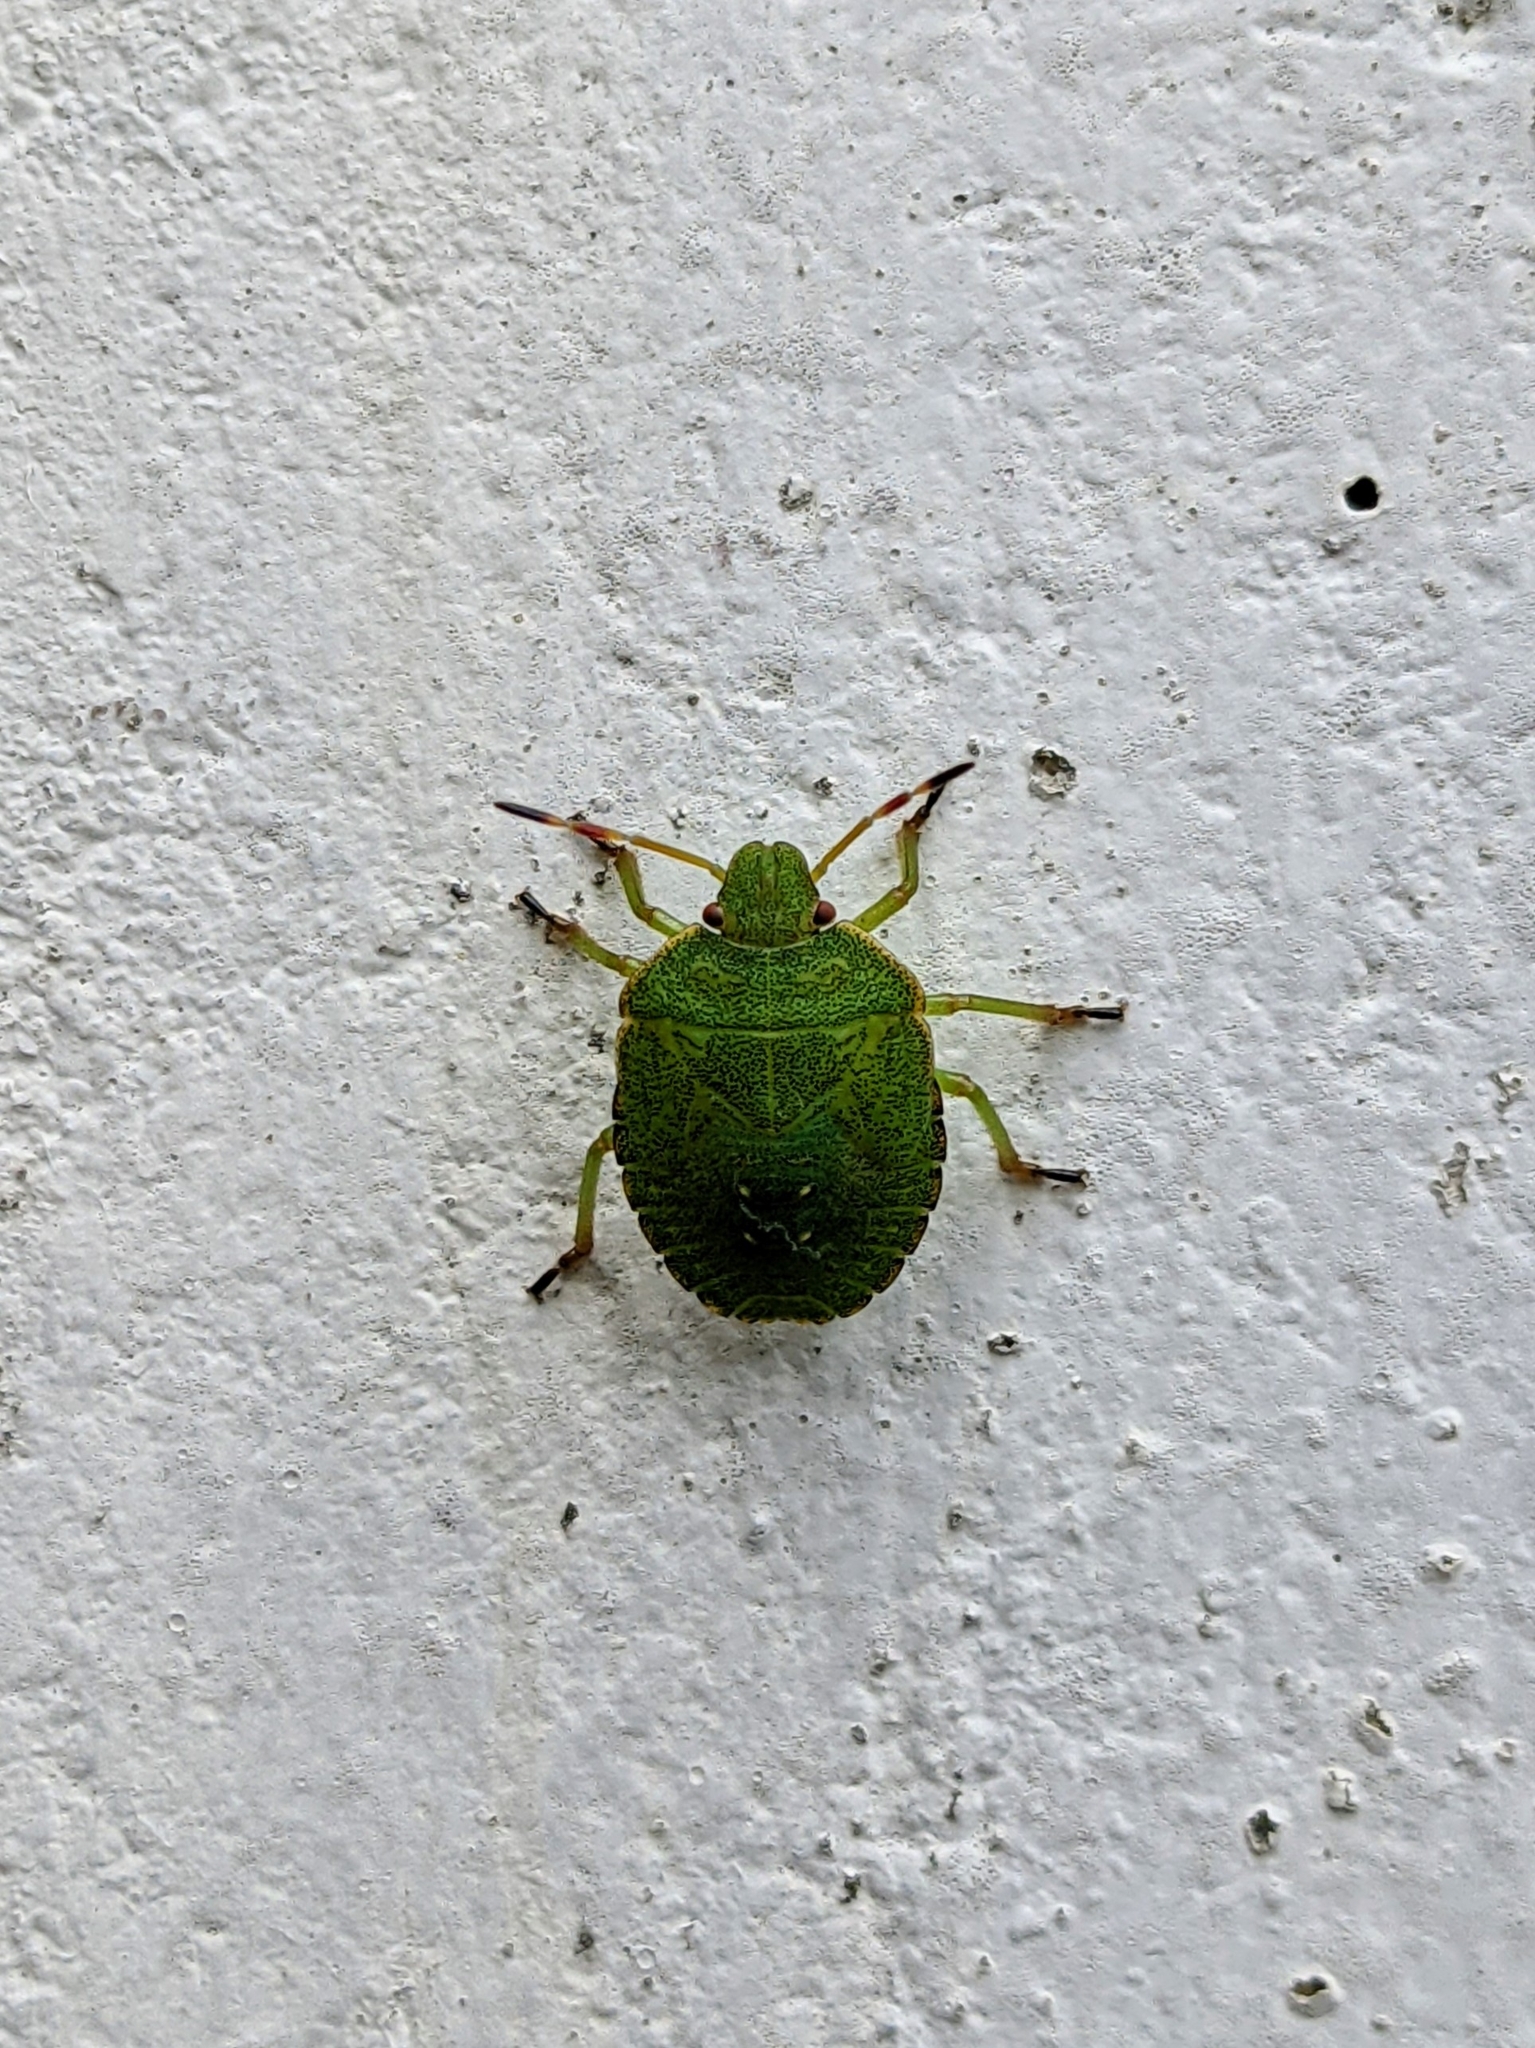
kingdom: Animalia
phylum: Arthropoda
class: Insecta
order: Hemiptera
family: Pentatomidae
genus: Palomena
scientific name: Palomena prasina
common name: Green shieldbug
